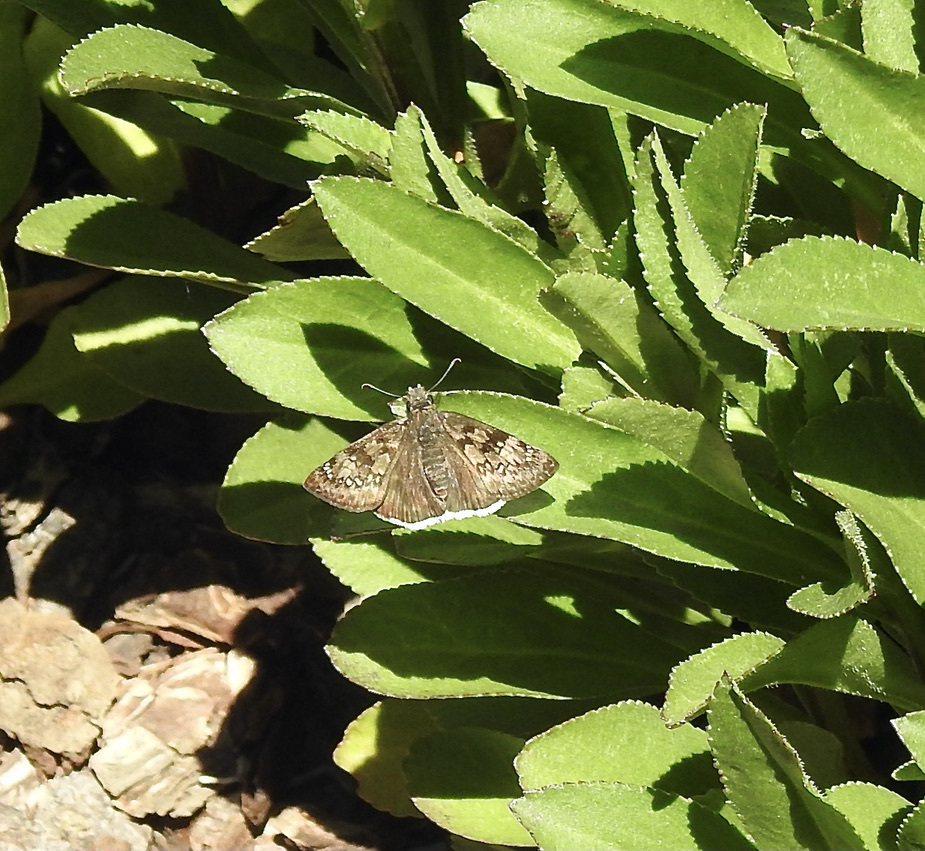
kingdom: Animalia
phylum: Arthropoda
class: Insecta
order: Lepidoptera
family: Hesperiidae
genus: Erynnis
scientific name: Erynnis tristis
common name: Mournful duskywing
